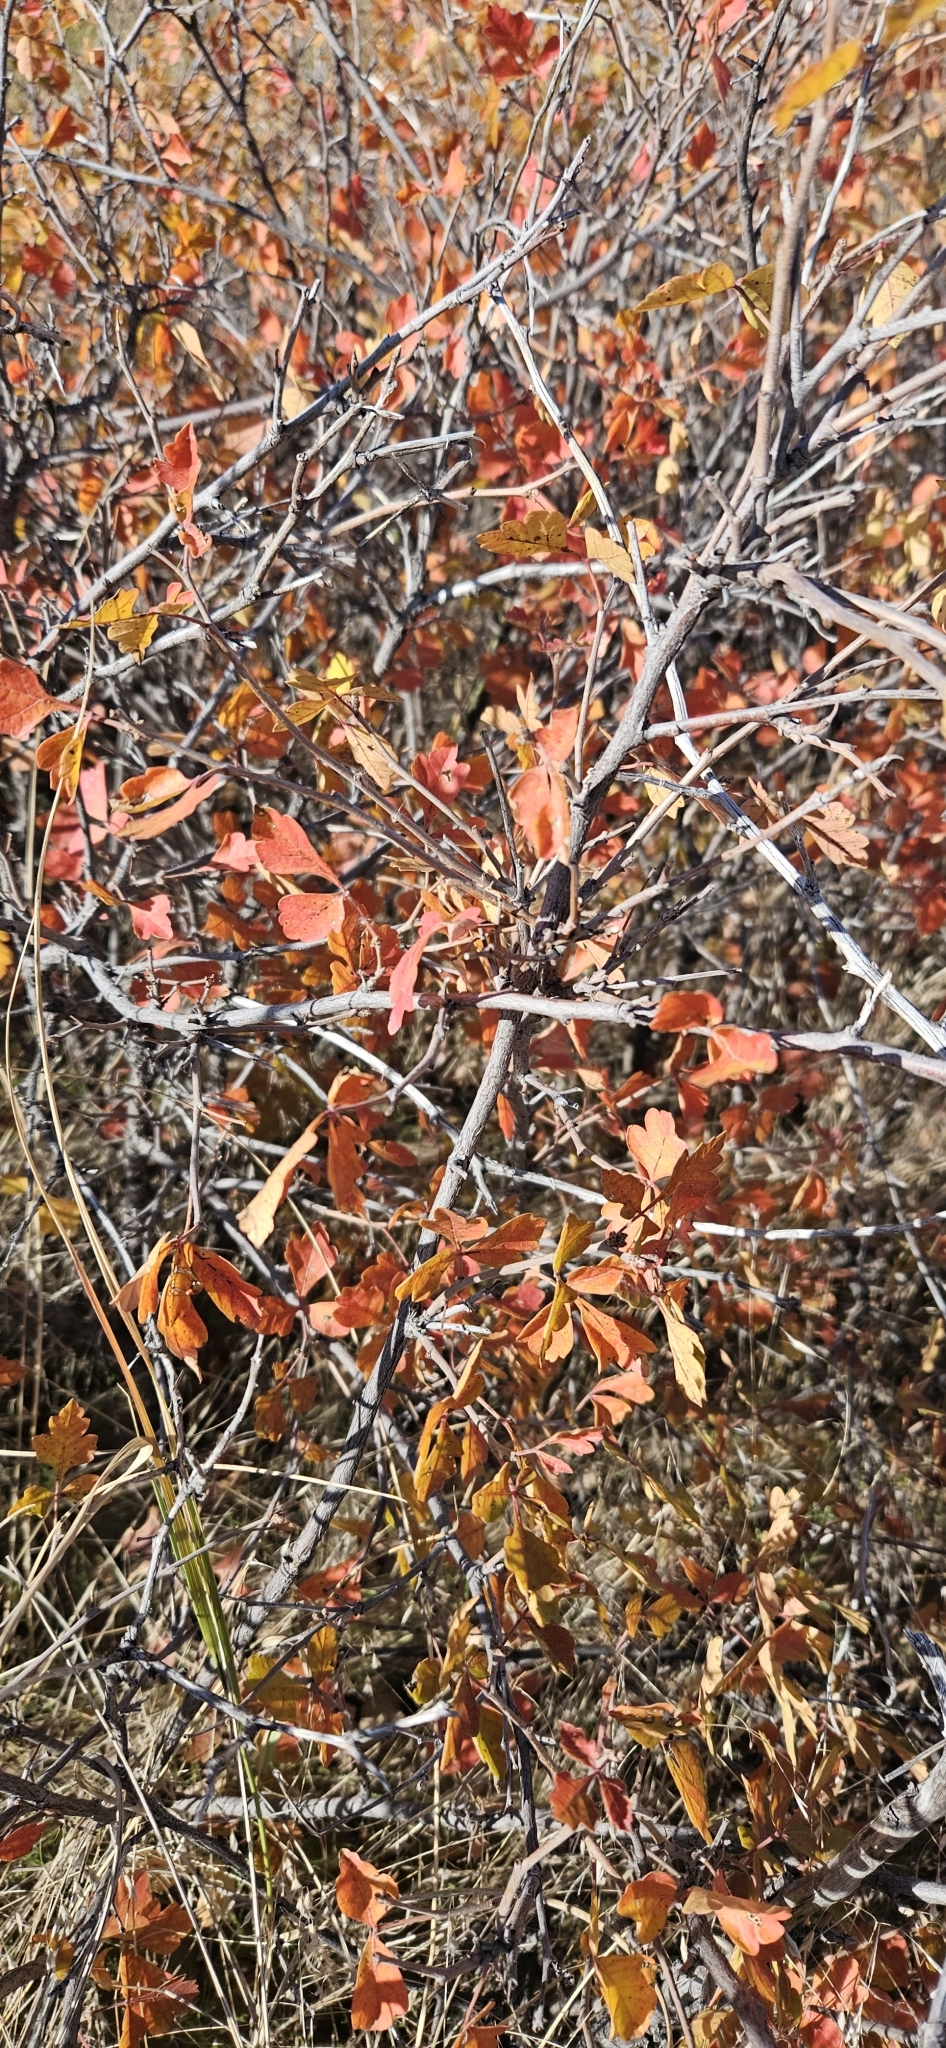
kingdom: Plantae
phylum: Tracheophyta
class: Magnoliopsida
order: Sapindales
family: Anacardiaceae
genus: Rhus
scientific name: Rhus aromatica
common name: Aromatic sumac
